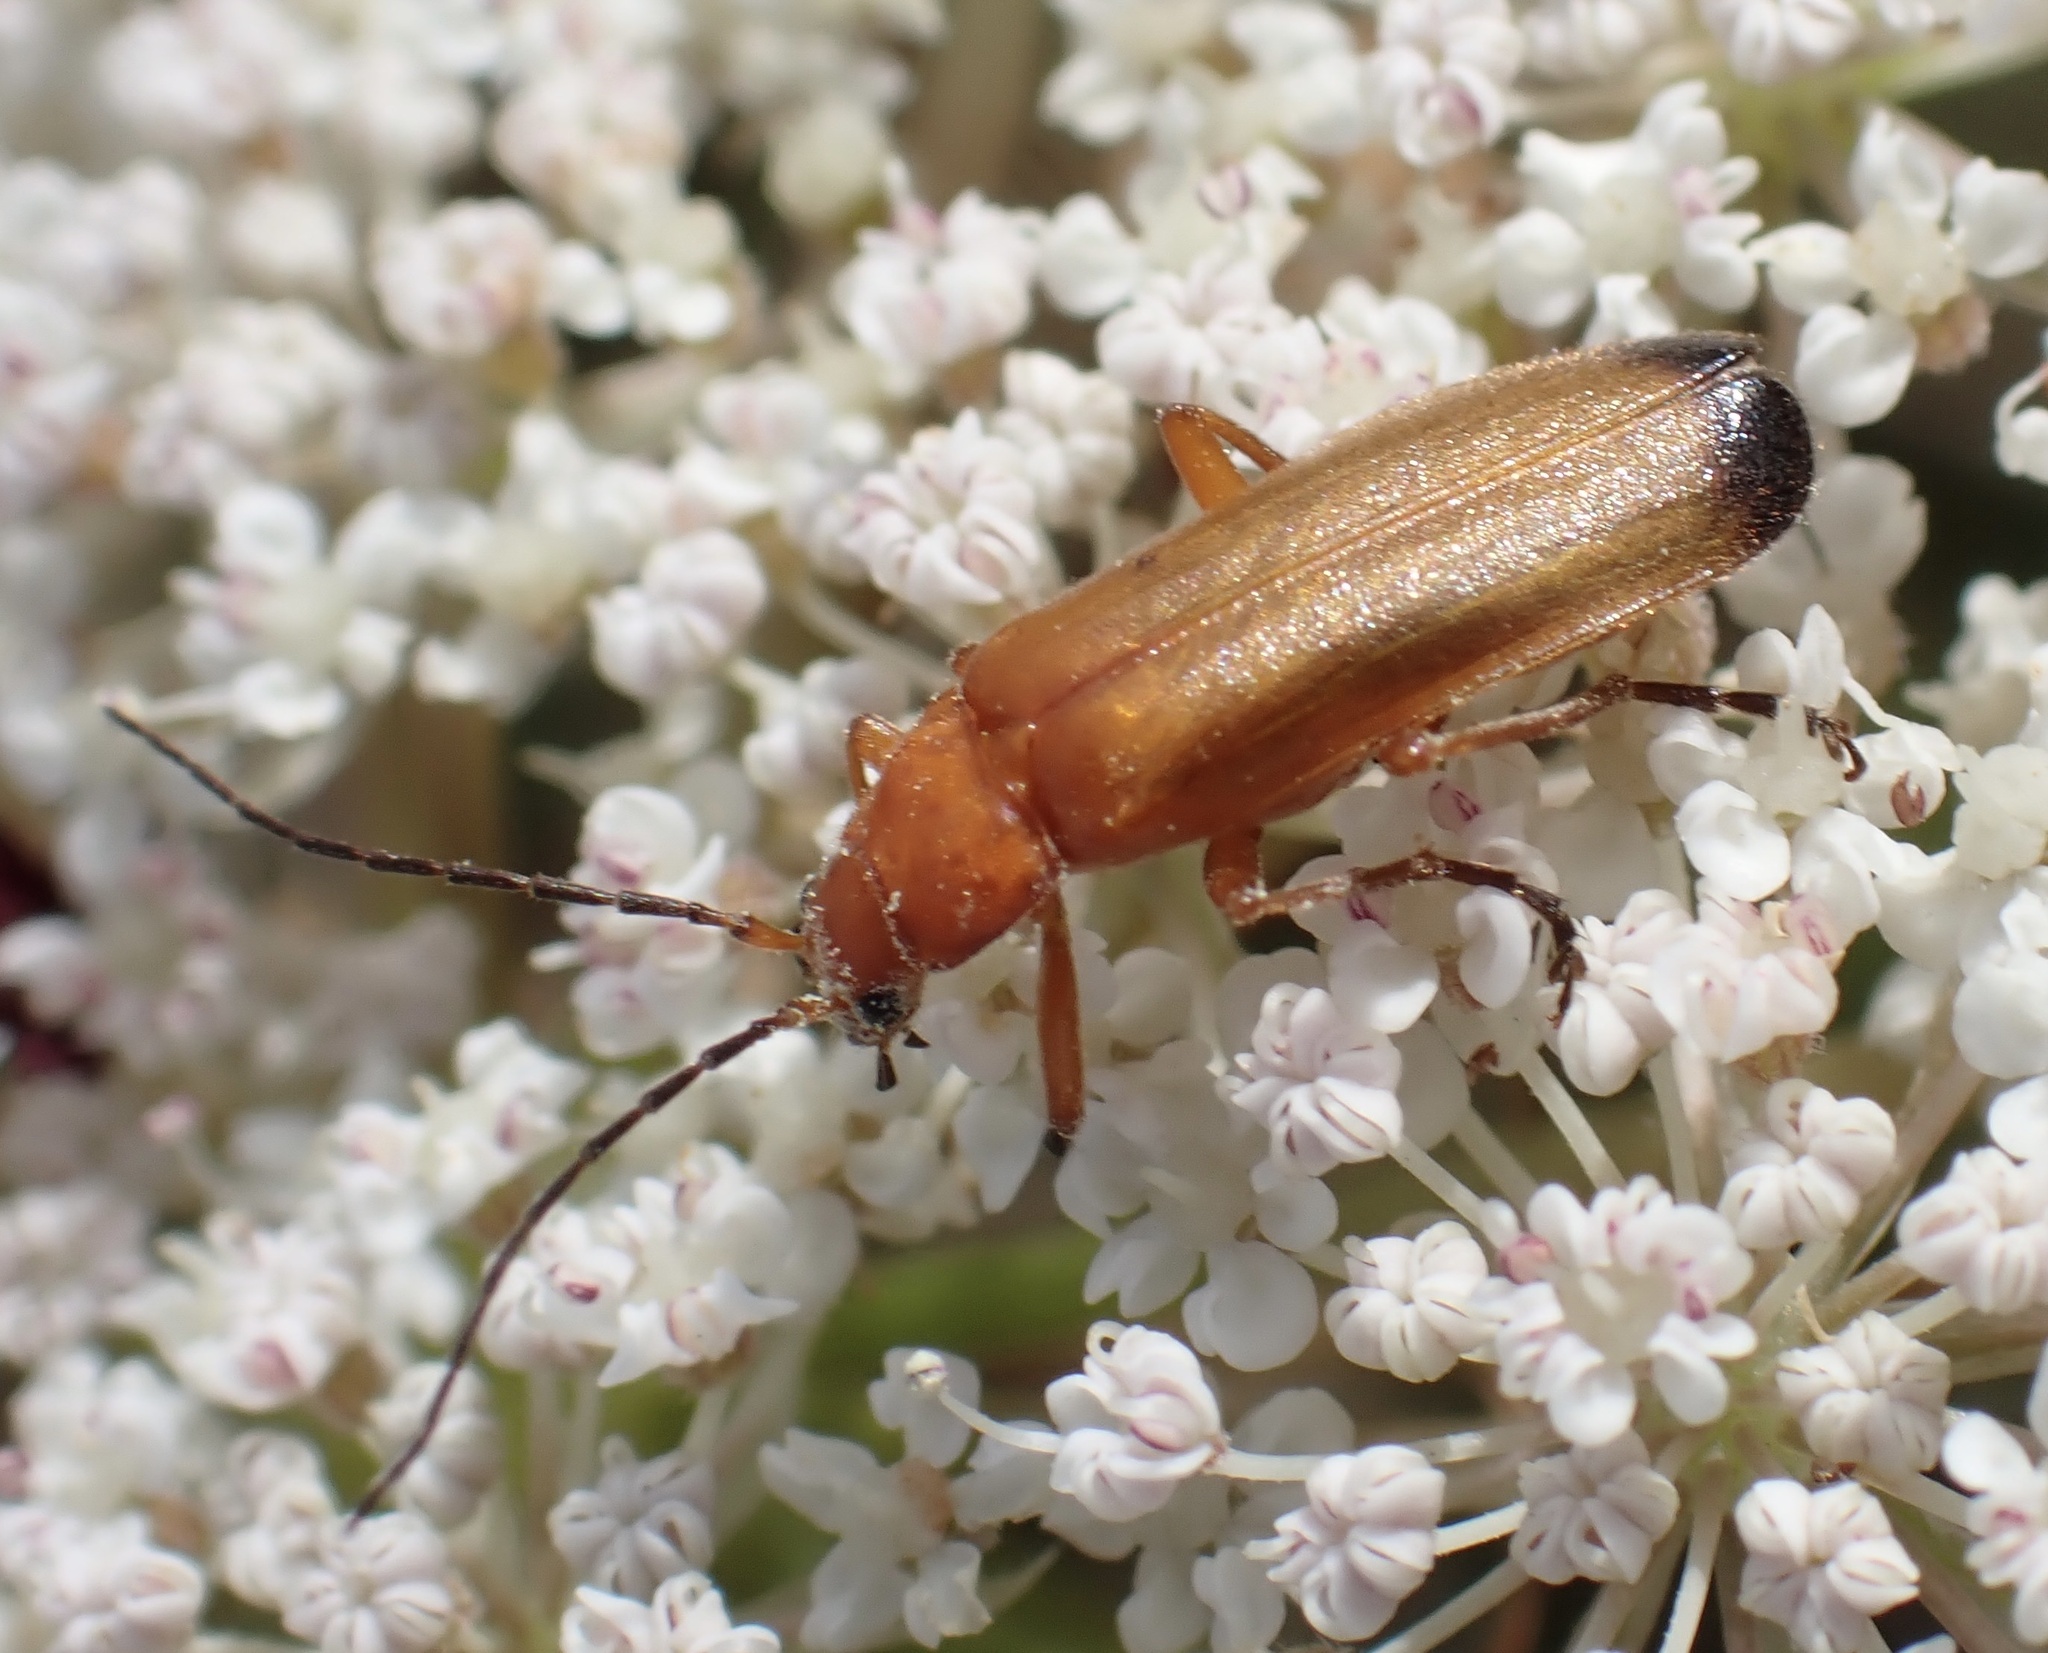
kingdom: Animalia
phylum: Arthropoda
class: Insecta
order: Coleoptera
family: Cantharidae
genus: Rhagonycha
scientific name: Rhagonycha fulva
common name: Common red soldier beetle
